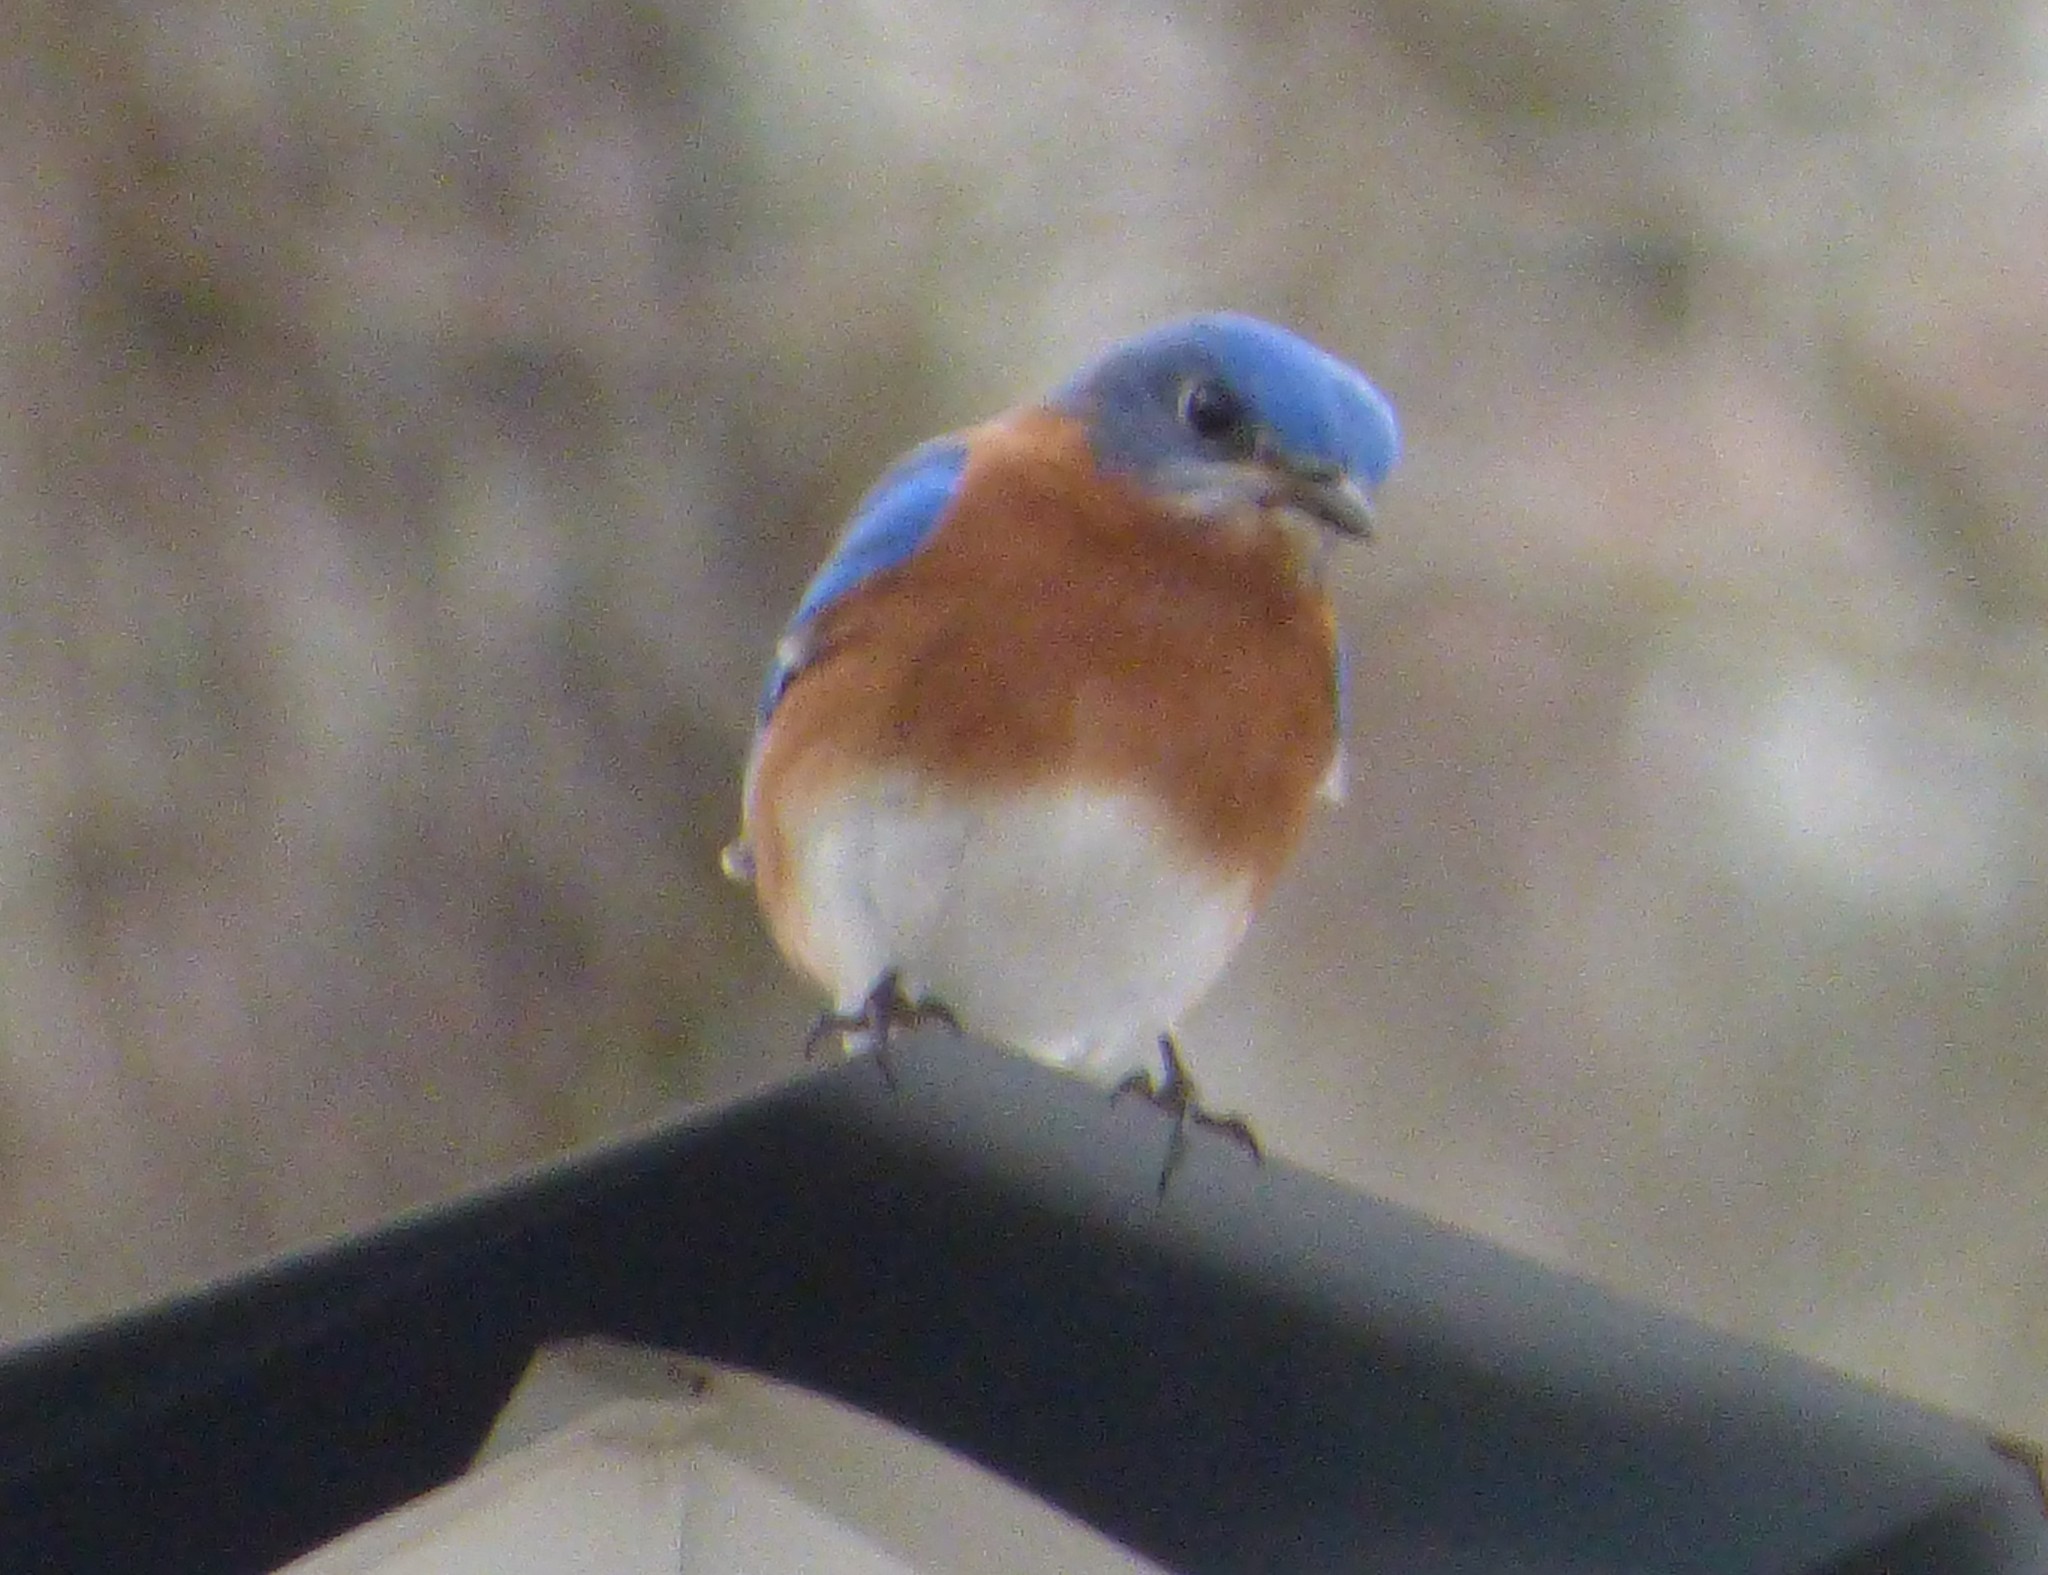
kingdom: Animalia
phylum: Chordata
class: Aves
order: Passeriformes
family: Turdidae
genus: Sialia
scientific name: Sialia sialis
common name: Eastern bluebird
